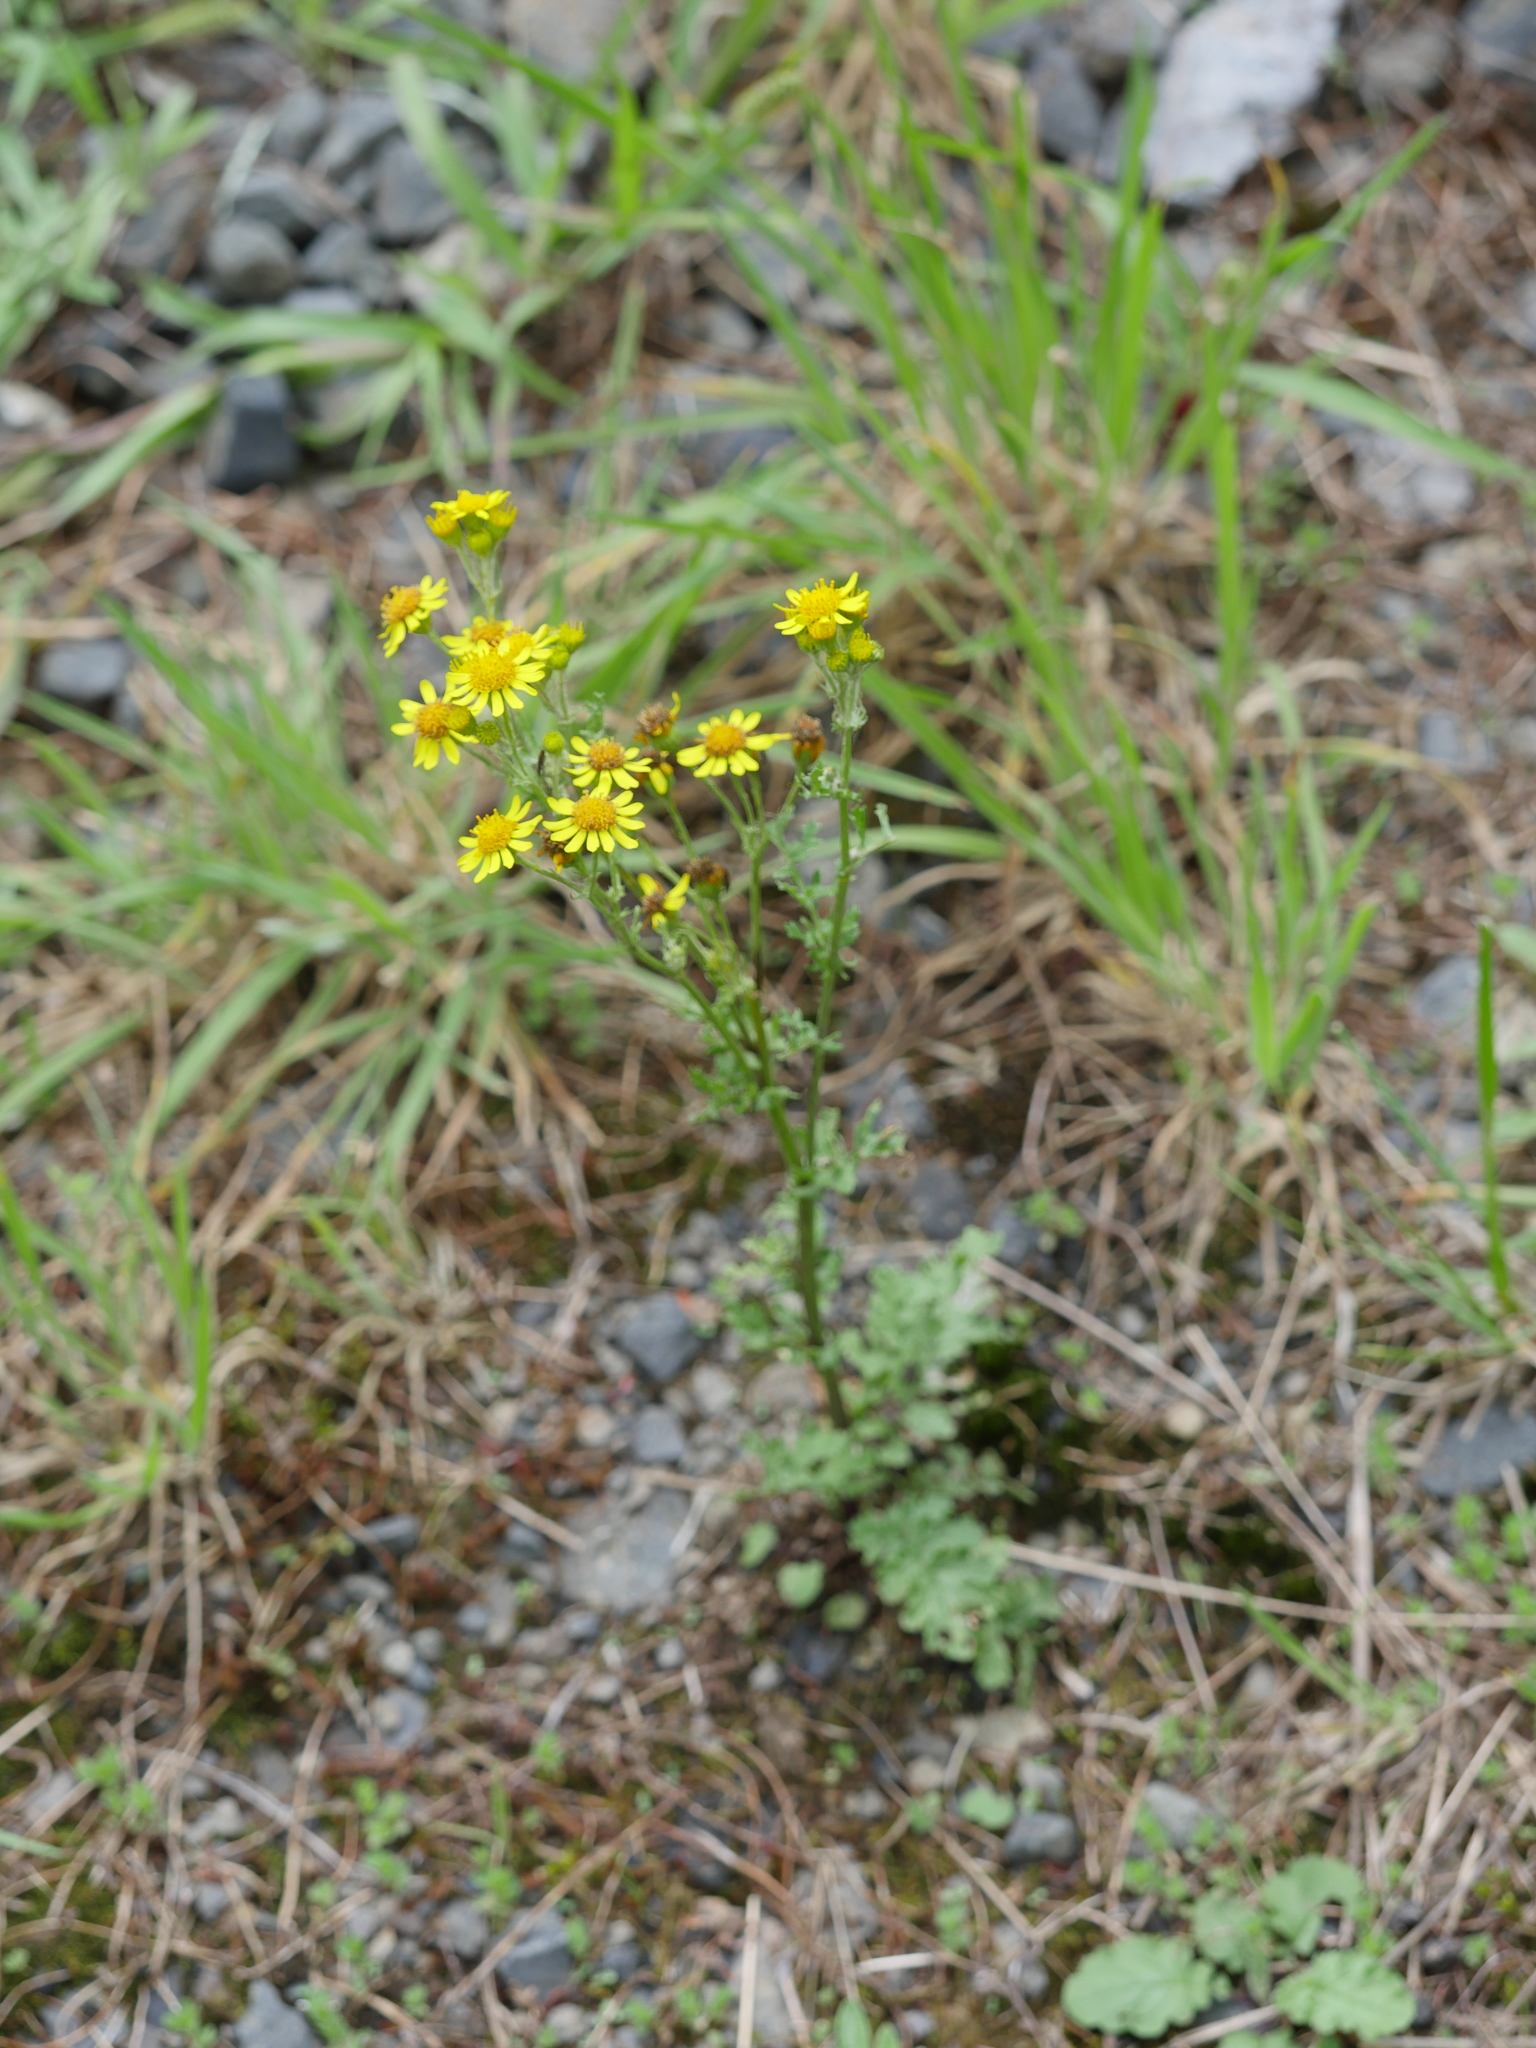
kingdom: Plantae
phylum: Tracheophyta
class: Magnoliopsida
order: Asterales
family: Asteraceae
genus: Jacobaea
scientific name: Jacobaea vulgaris
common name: Stinking willie
